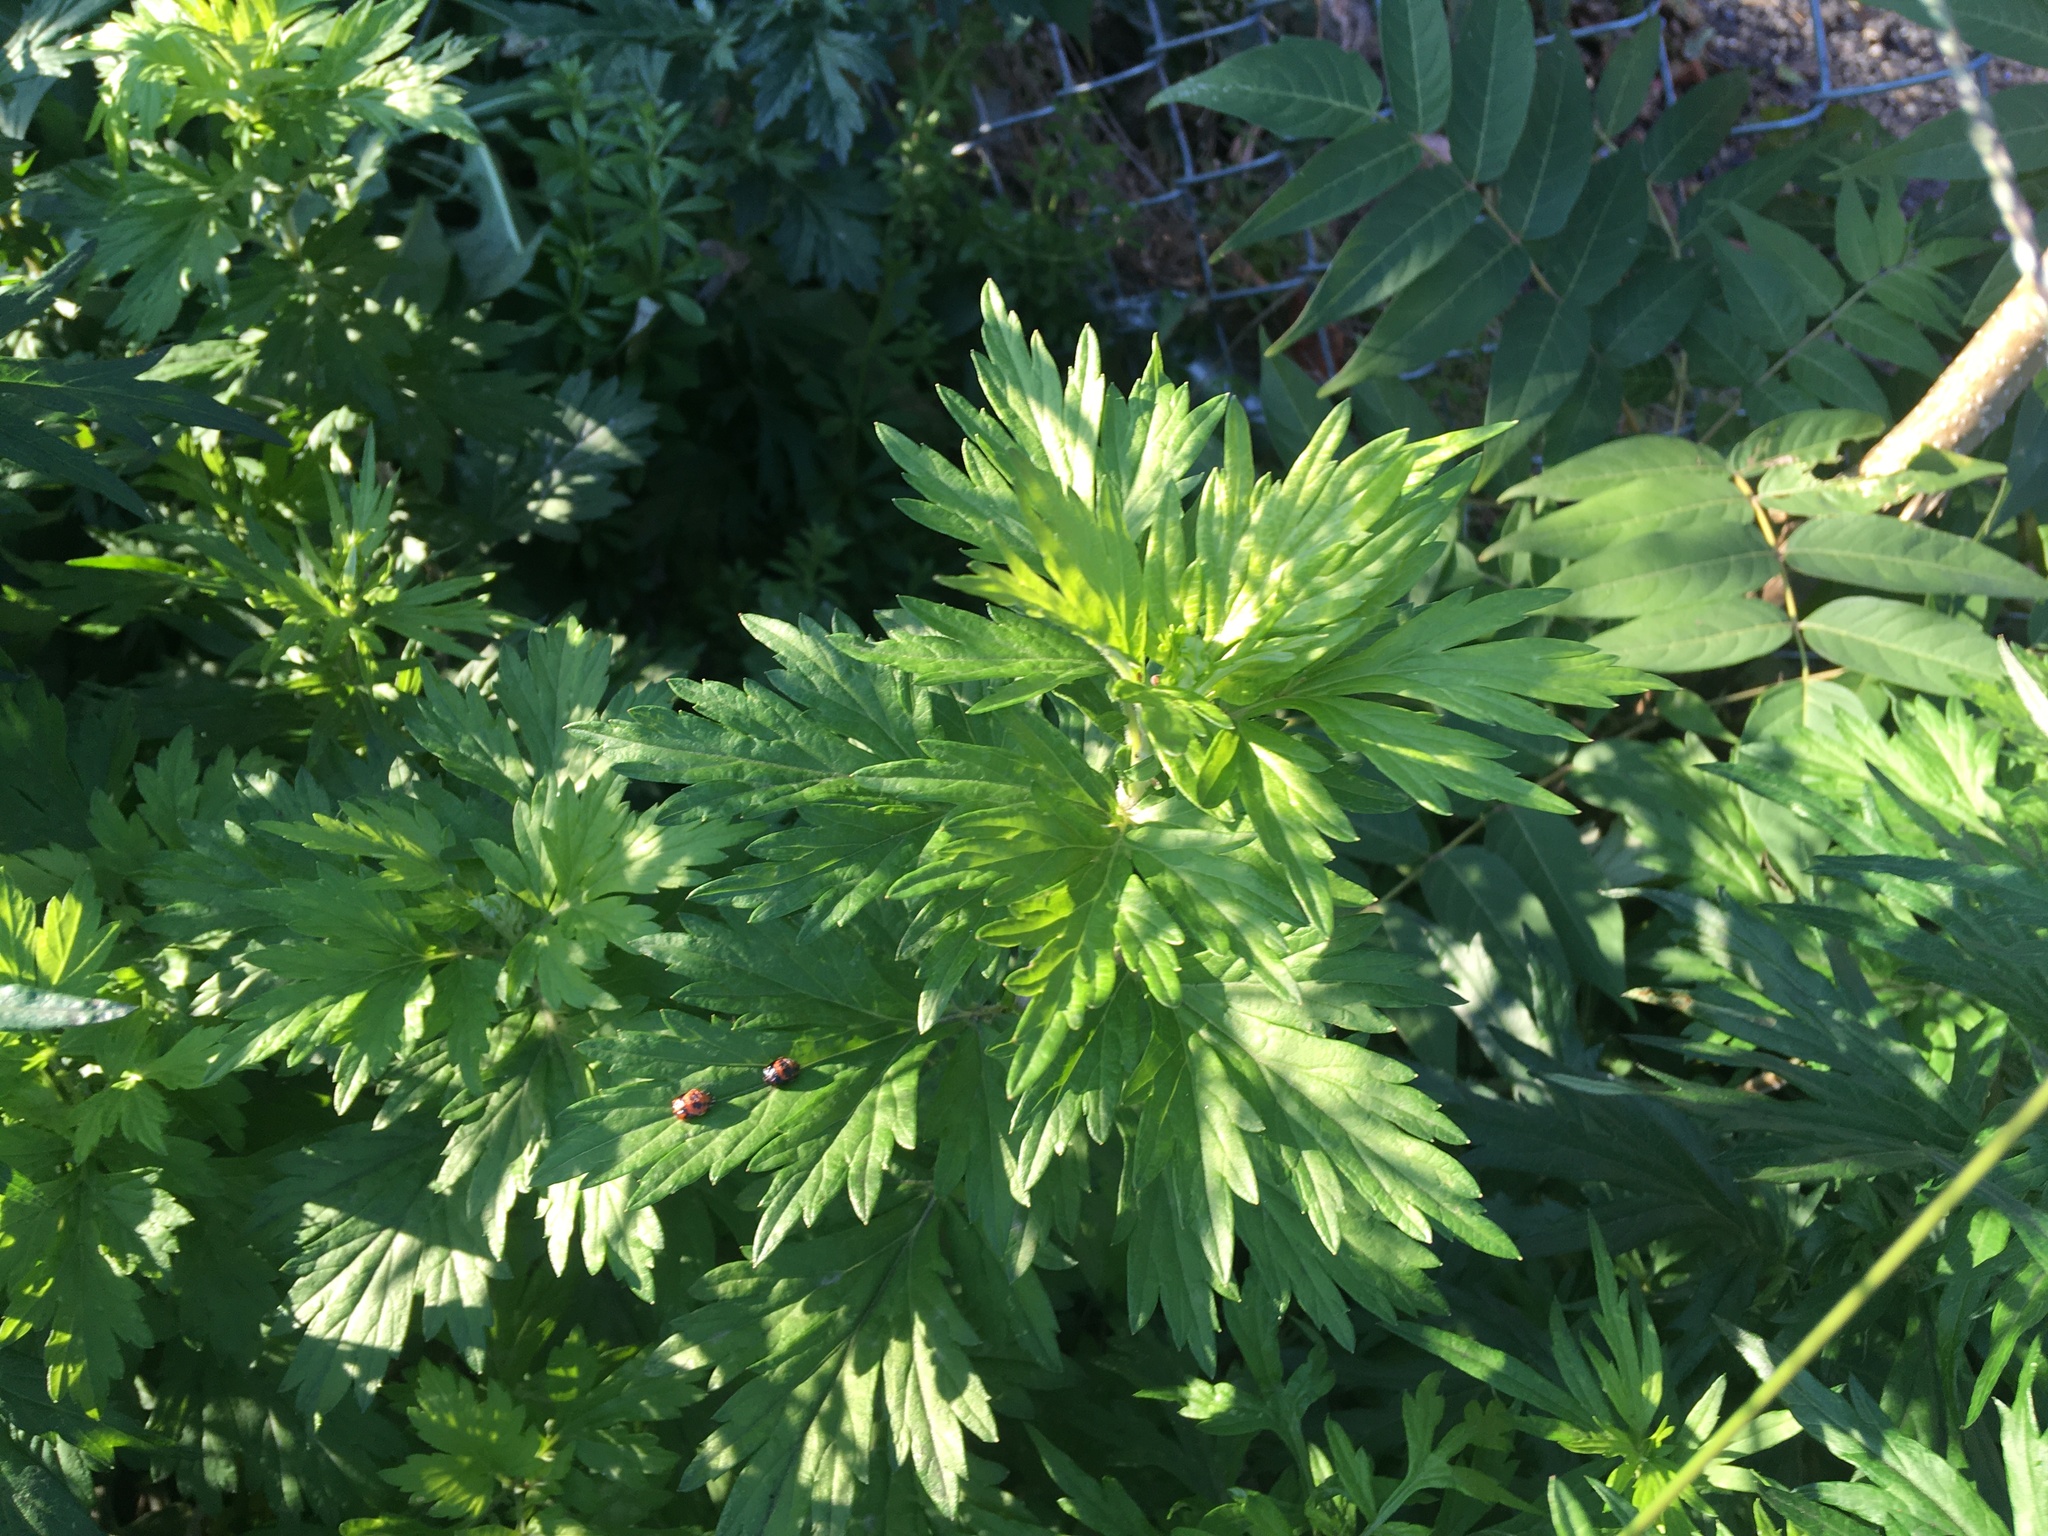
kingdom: Plantae
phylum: Tracheophyta
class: Magnoliopsida
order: Asterales
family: Asteraceae
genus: Artemisia
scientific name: Artemisia vulgaris
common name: Mugwort
